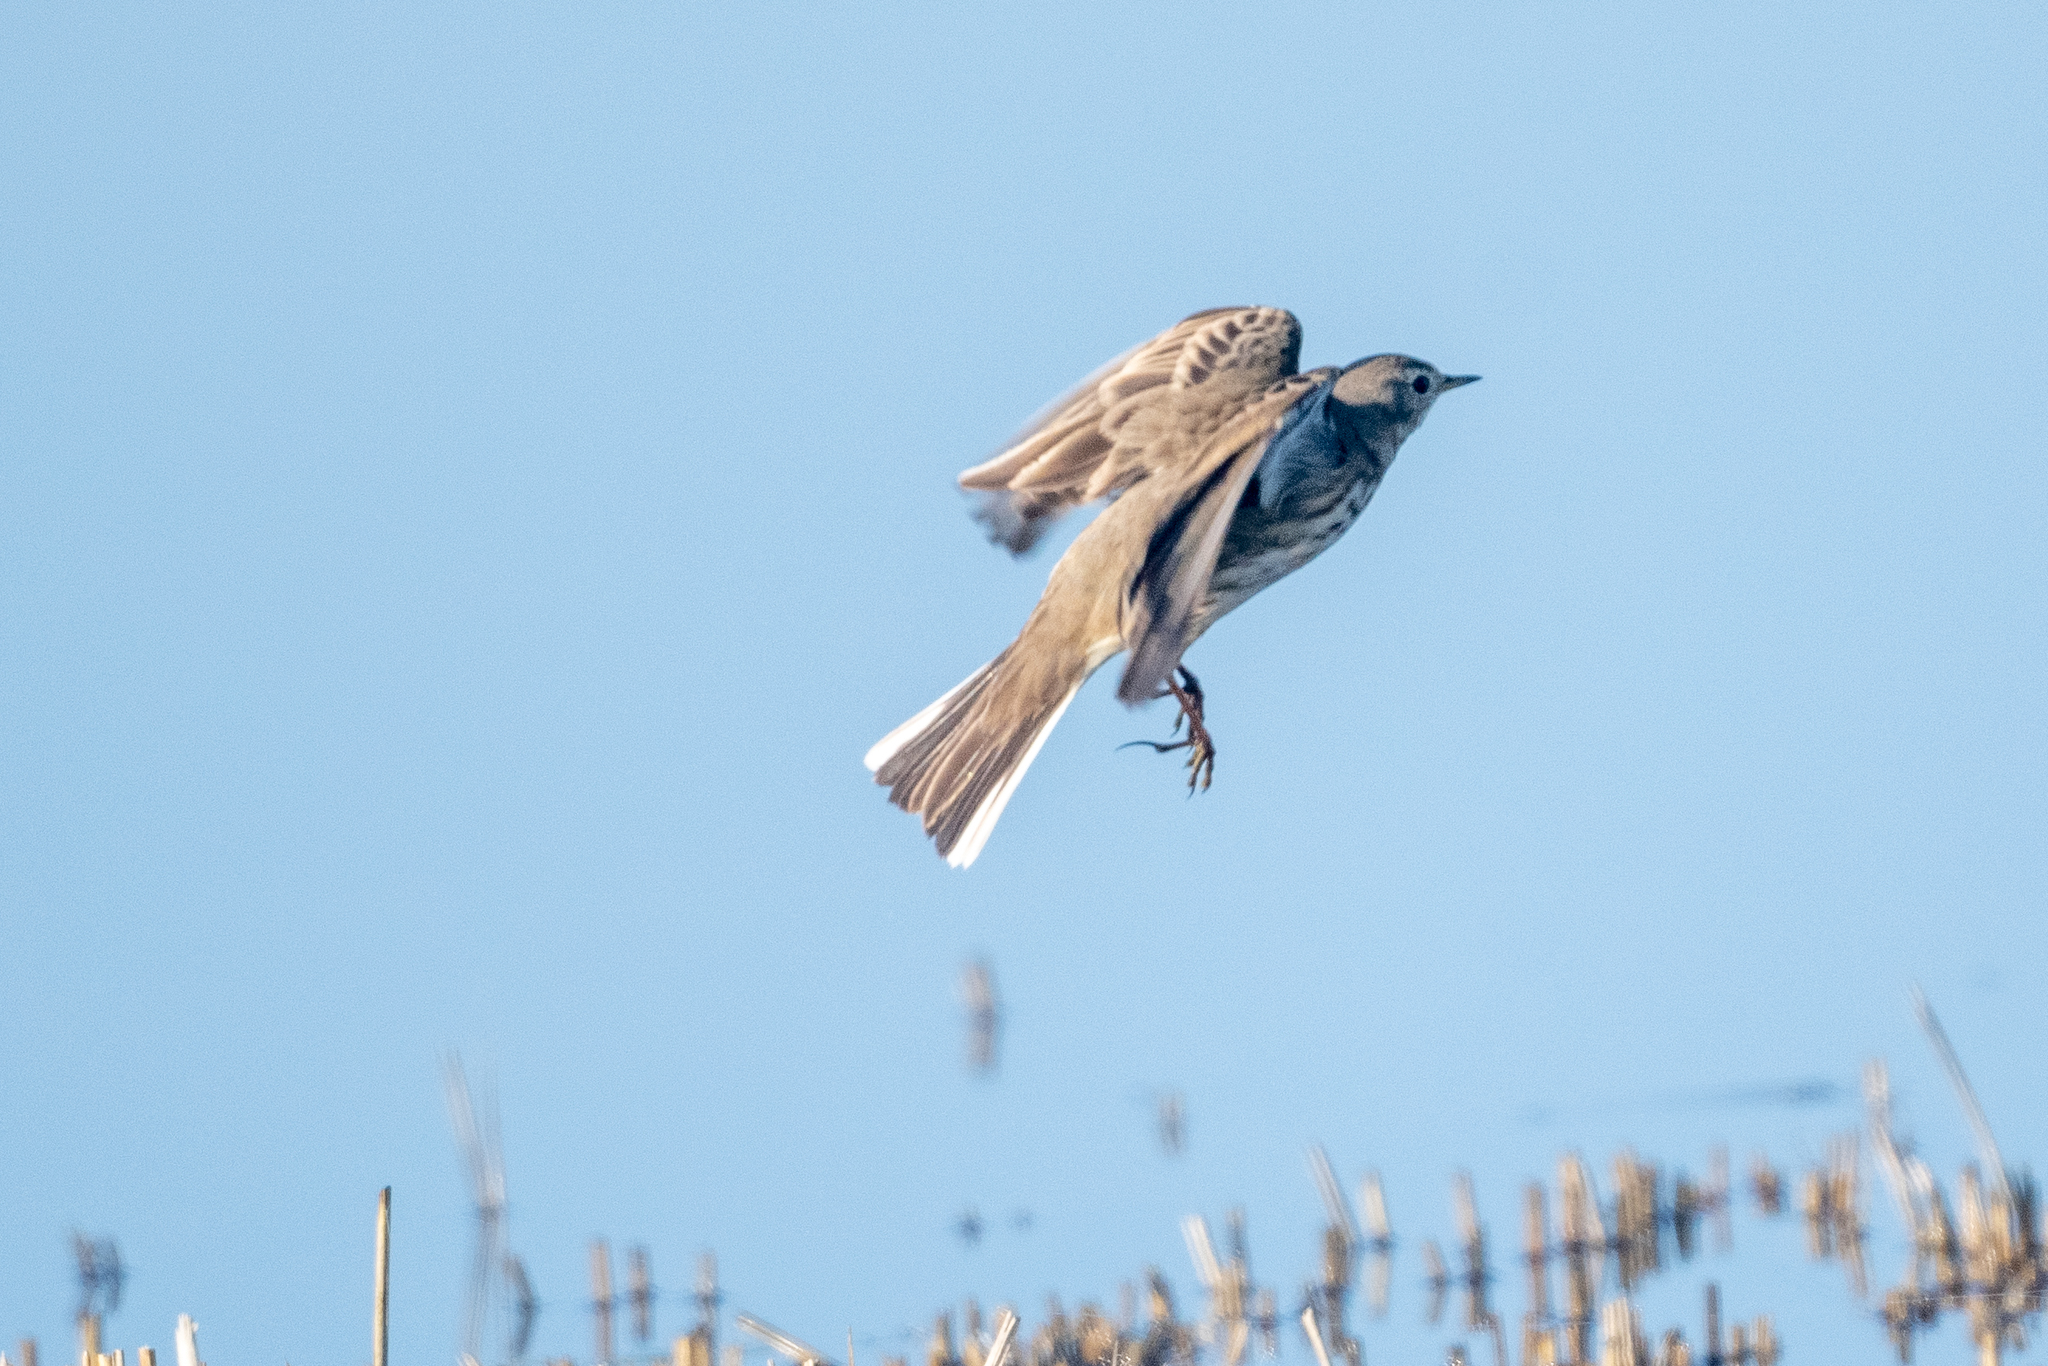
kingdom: Animalia
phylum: Chordata
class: Aves
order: Passeriformes
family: Motacillidae
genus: Anthus
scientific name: Anthus rubescens
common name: Buff-bellied pipit
